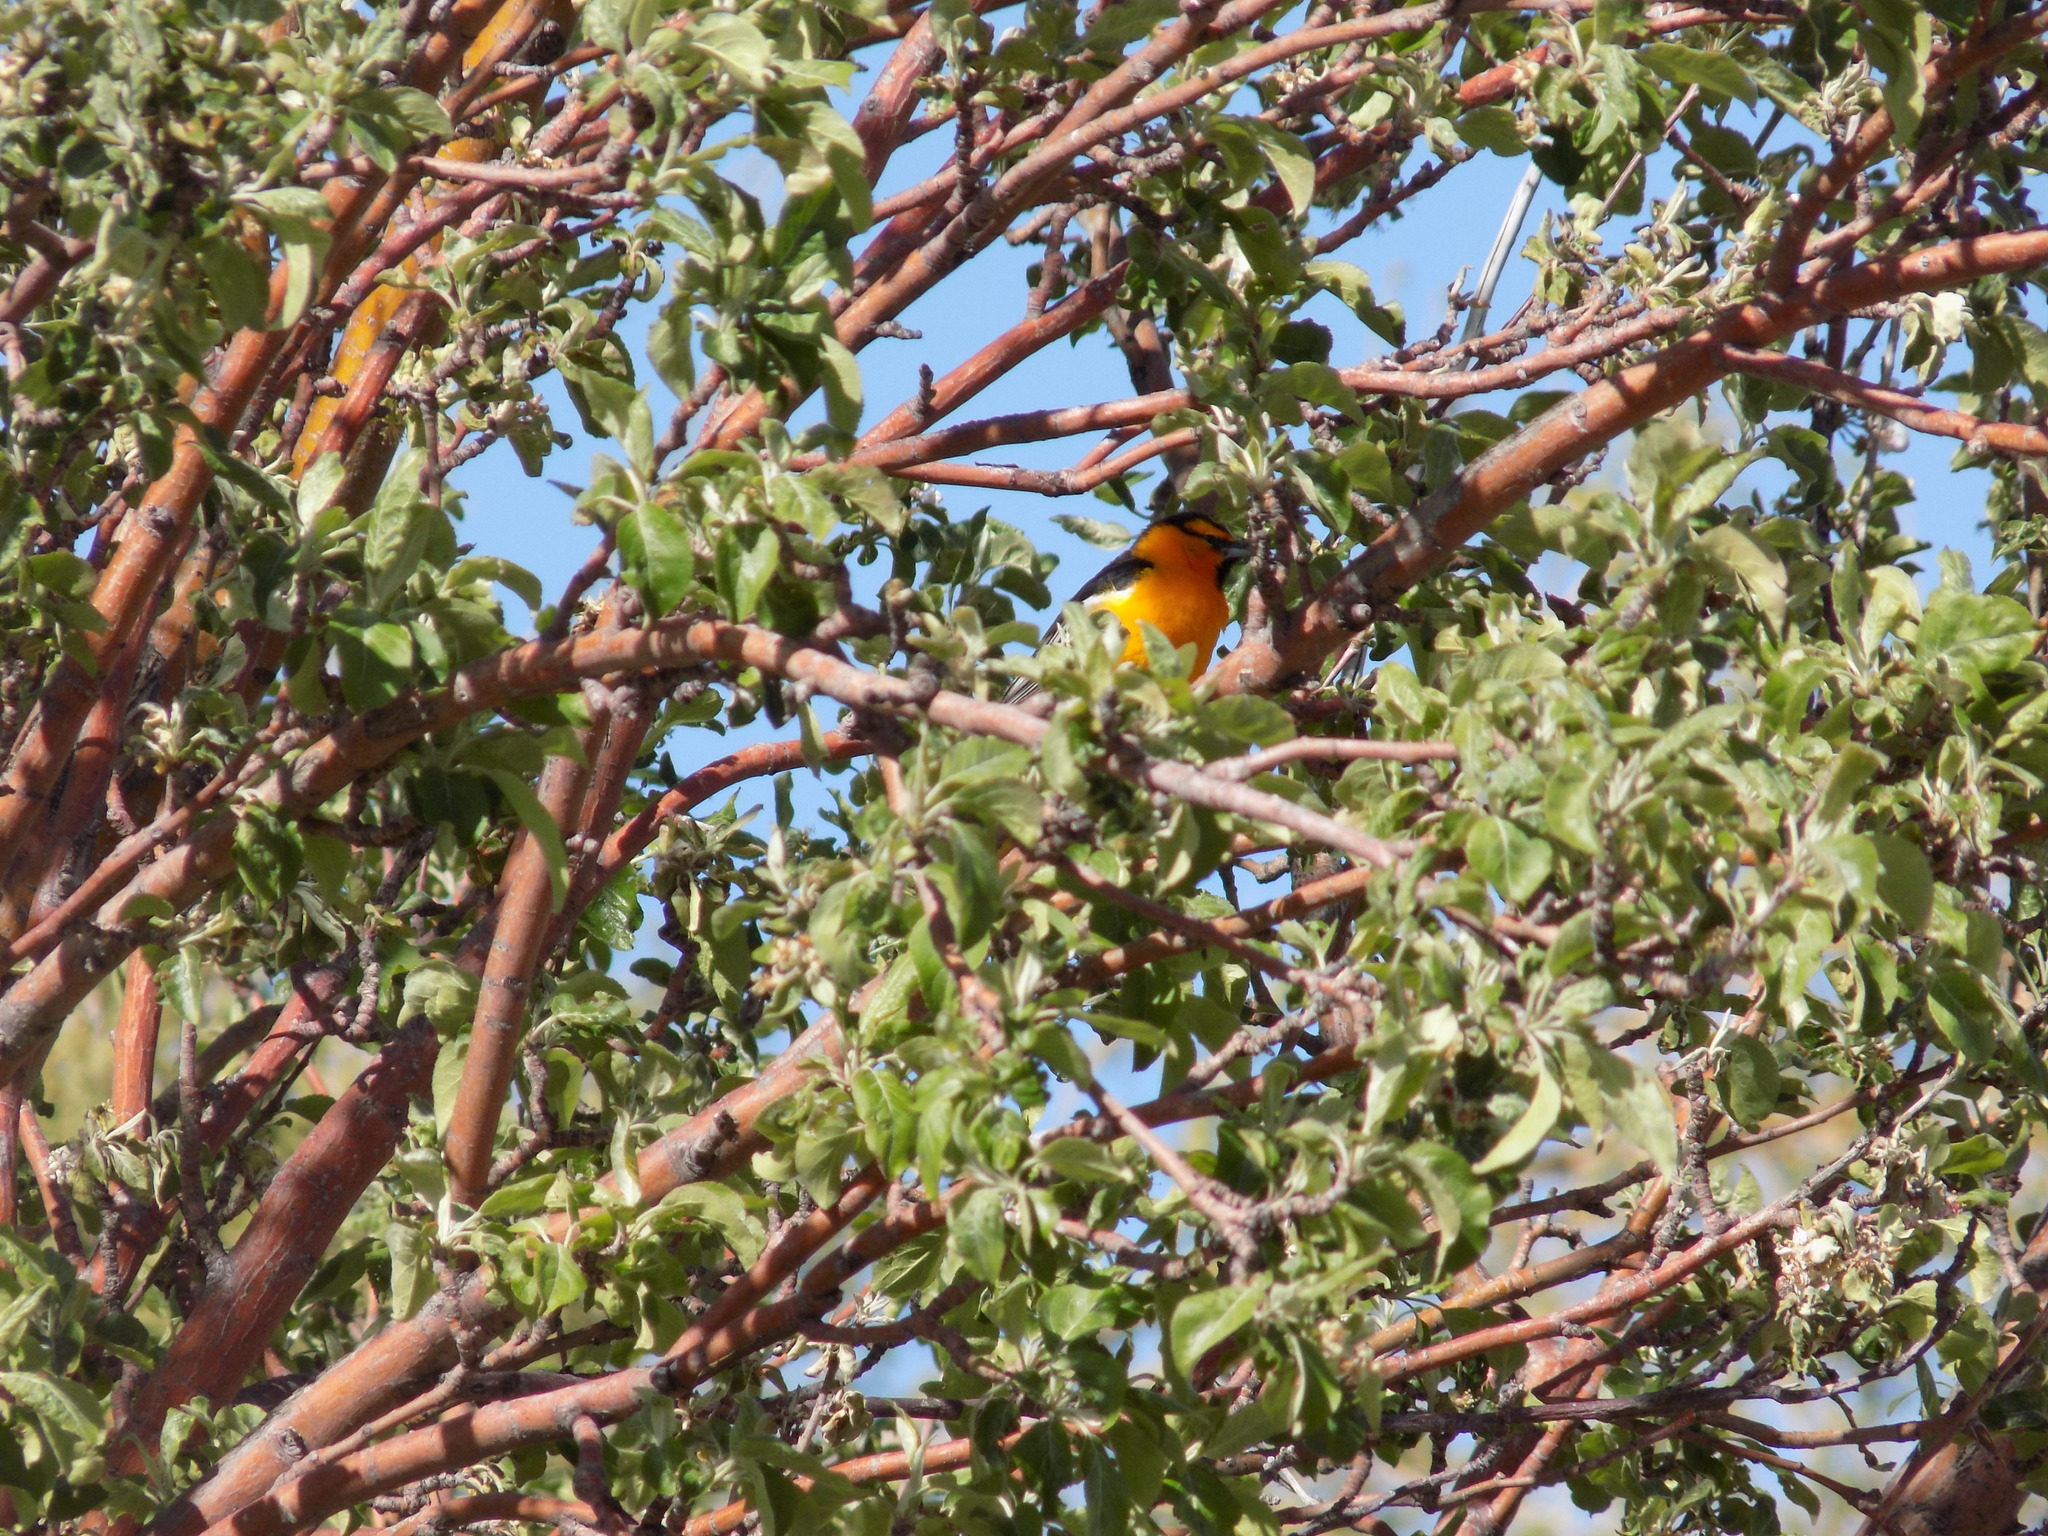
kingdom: Animalia
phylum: Chordata
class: Aves
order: Passeriformes
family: Icteridae
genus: Icterus
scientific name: Icterus bullockii
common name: Bullock's oriole
